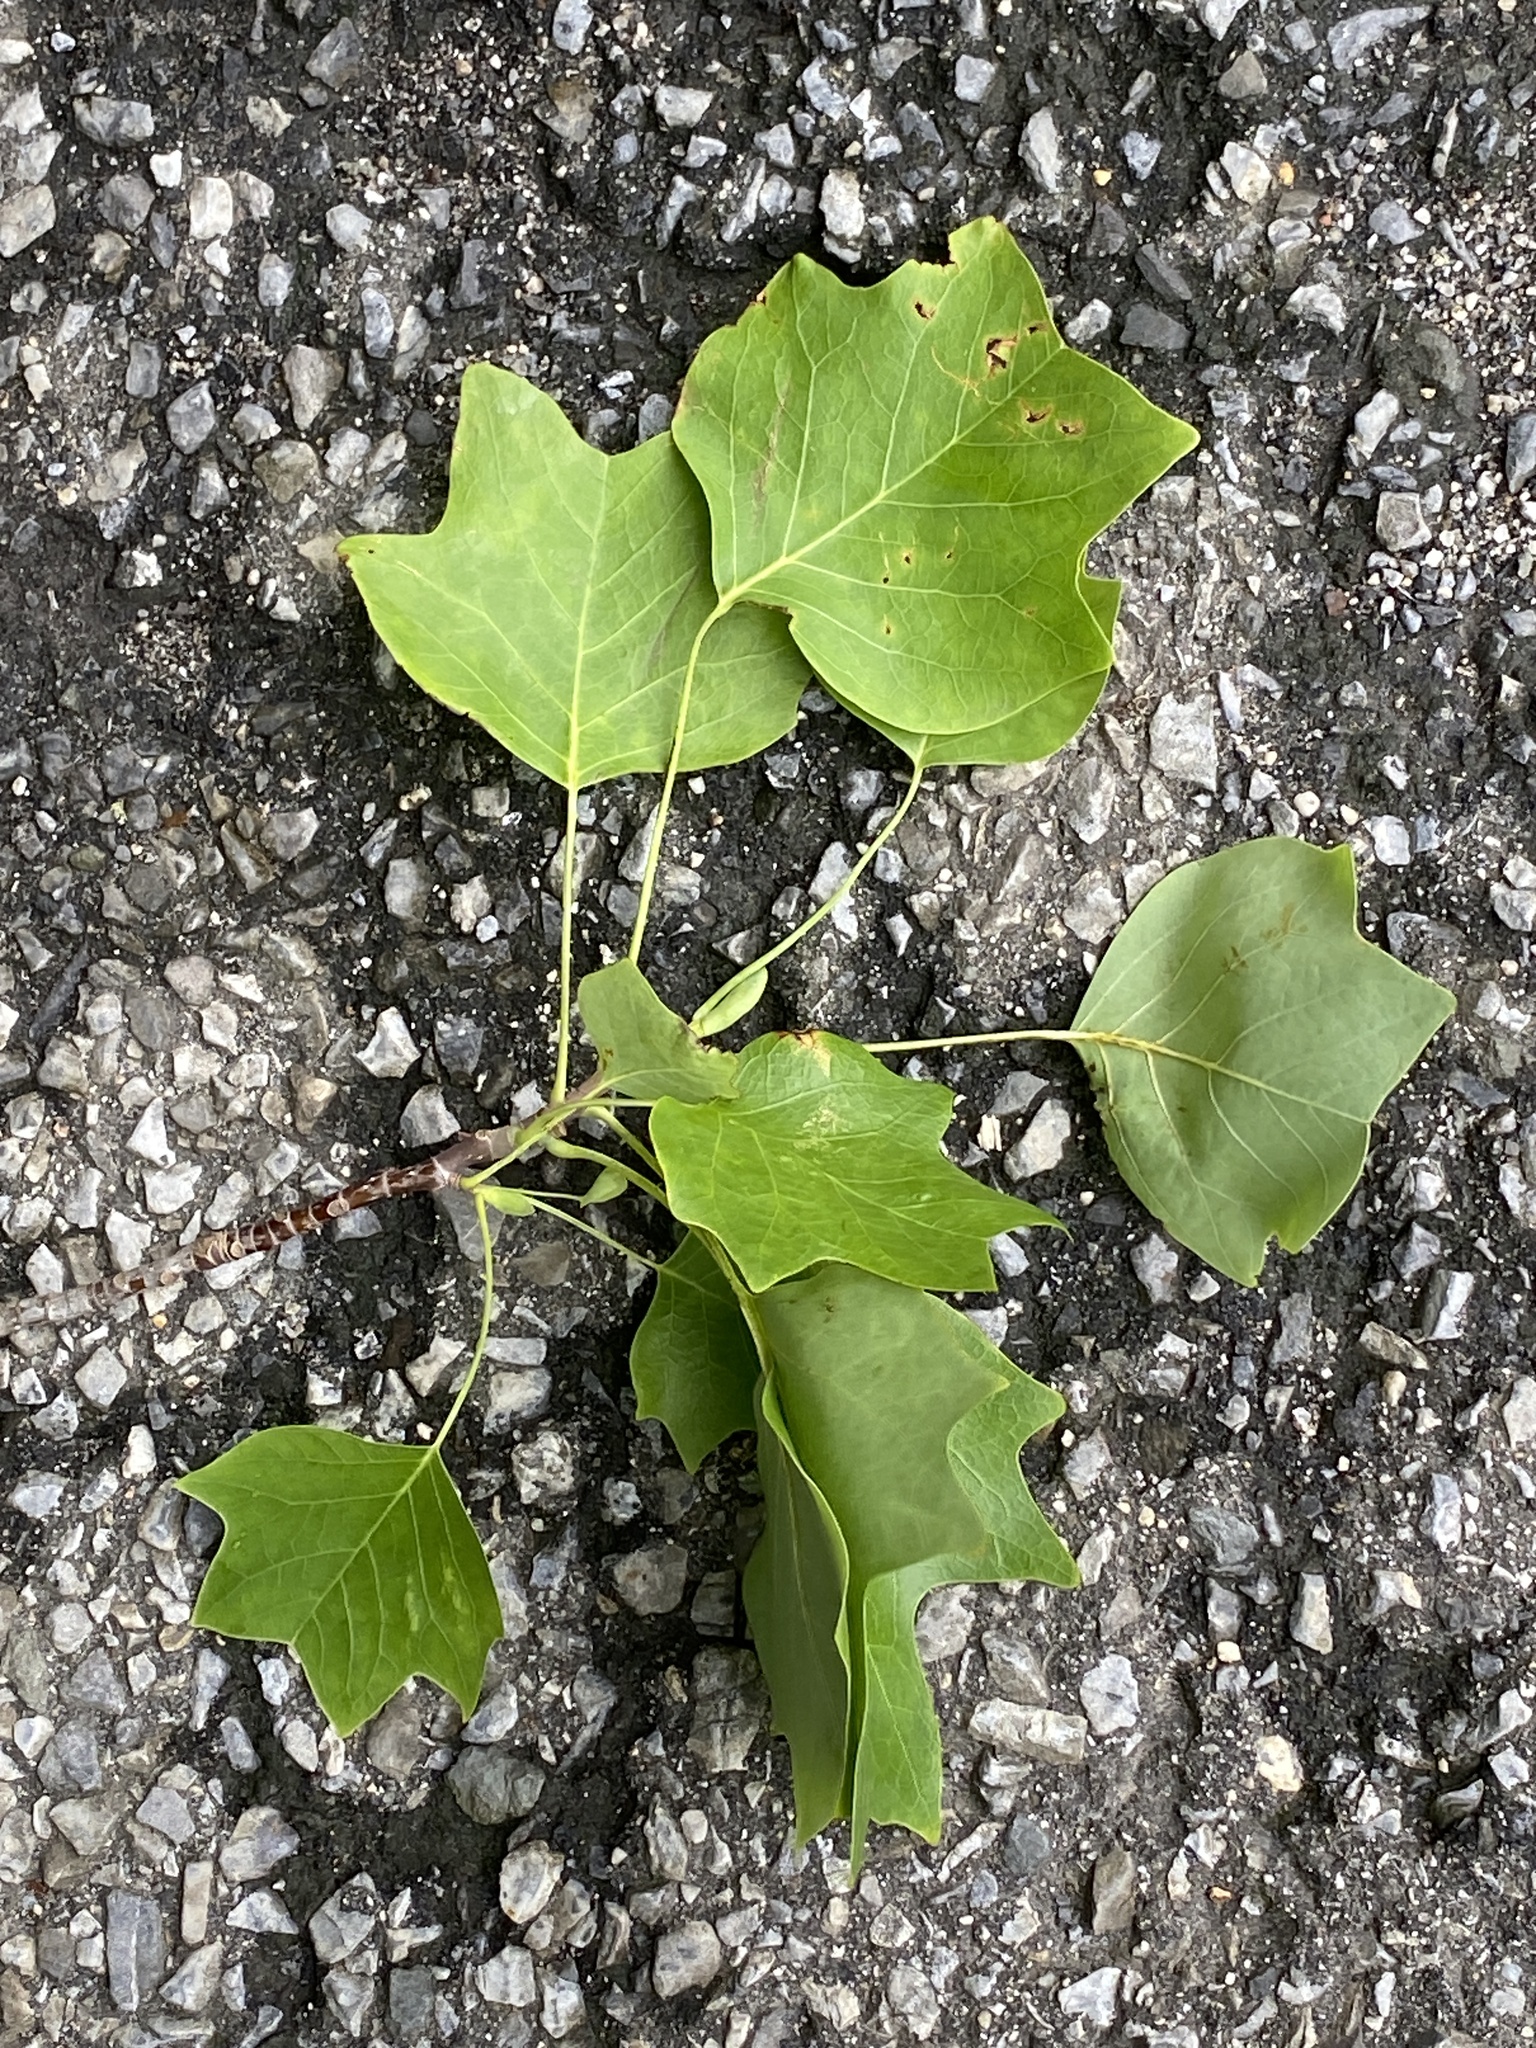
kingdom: Plantae
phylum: Tracheophyta
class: Magnoliopsida
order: Magnoliales
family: Magnoliaceae
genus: Liriodendron
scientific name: Liriodendron tulipifera
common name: Tulip tree
